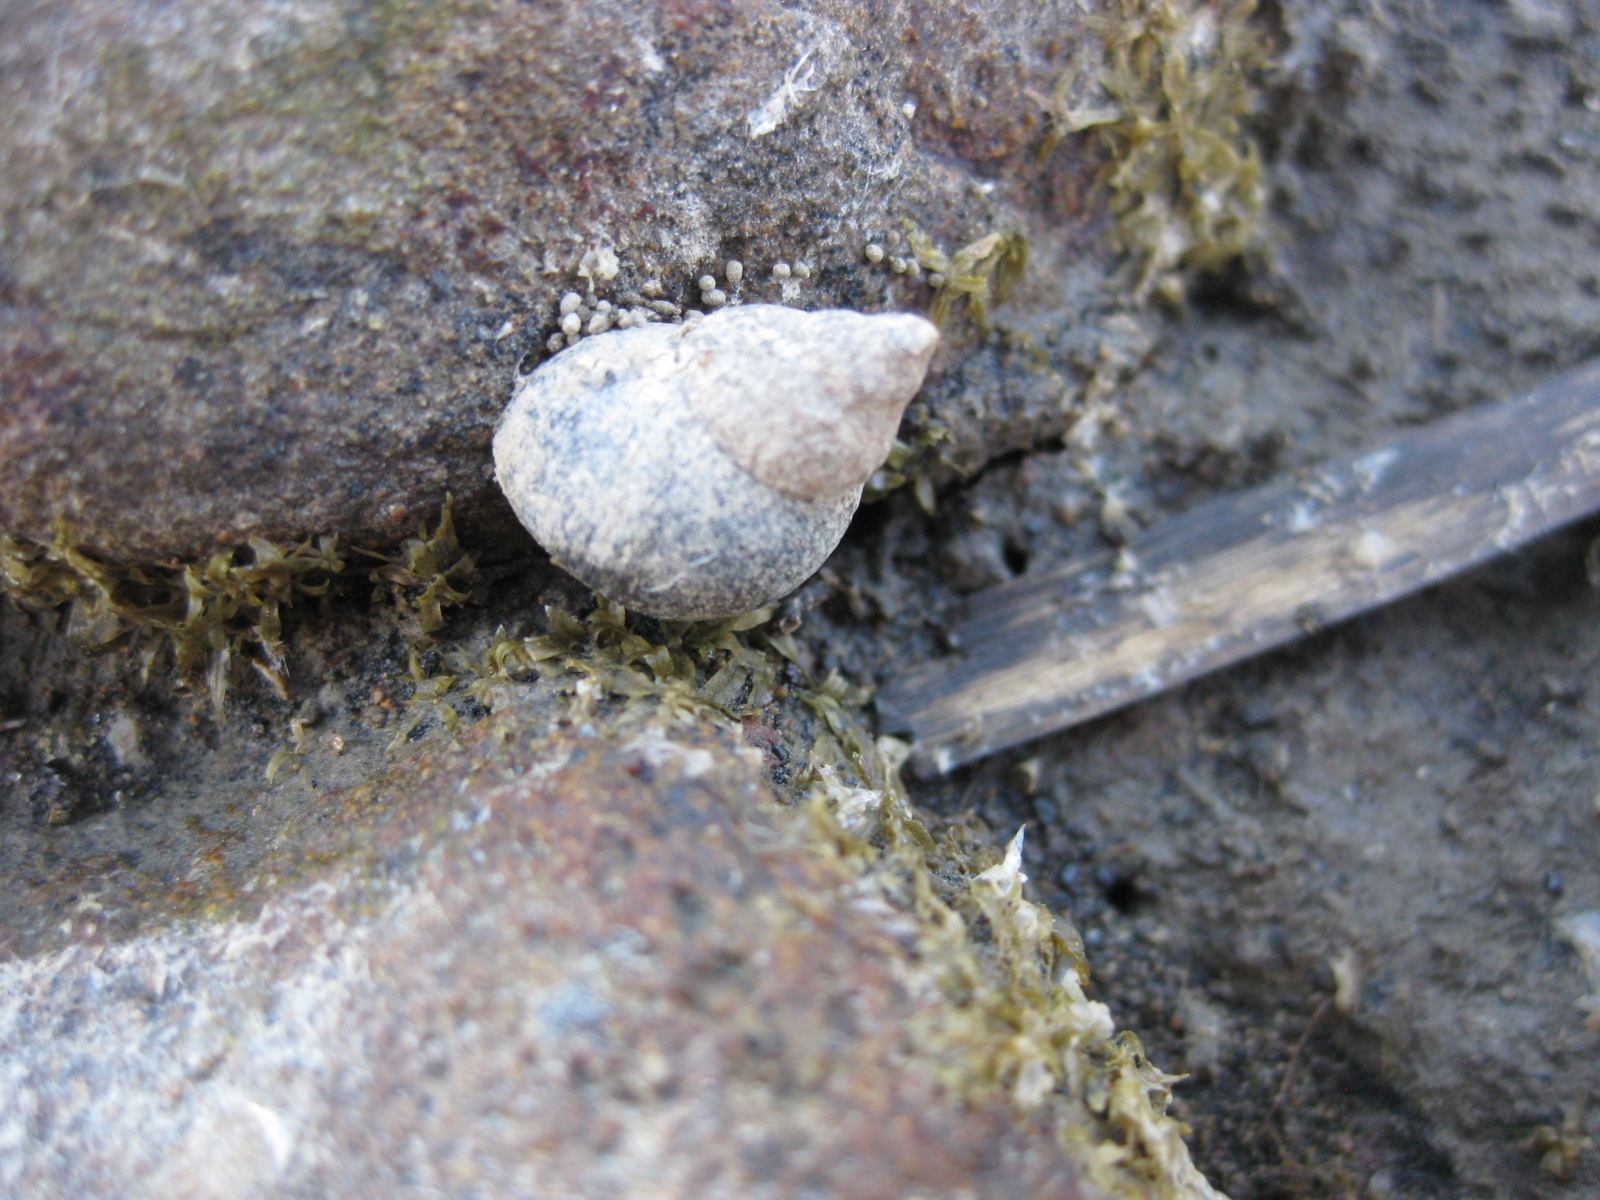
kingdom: Animalia
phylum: Mollusca
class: Gastropoda
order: Littorinimorpha
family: Littorinidae
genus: Austrolittorina
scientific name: Austrolittorina antipodum
